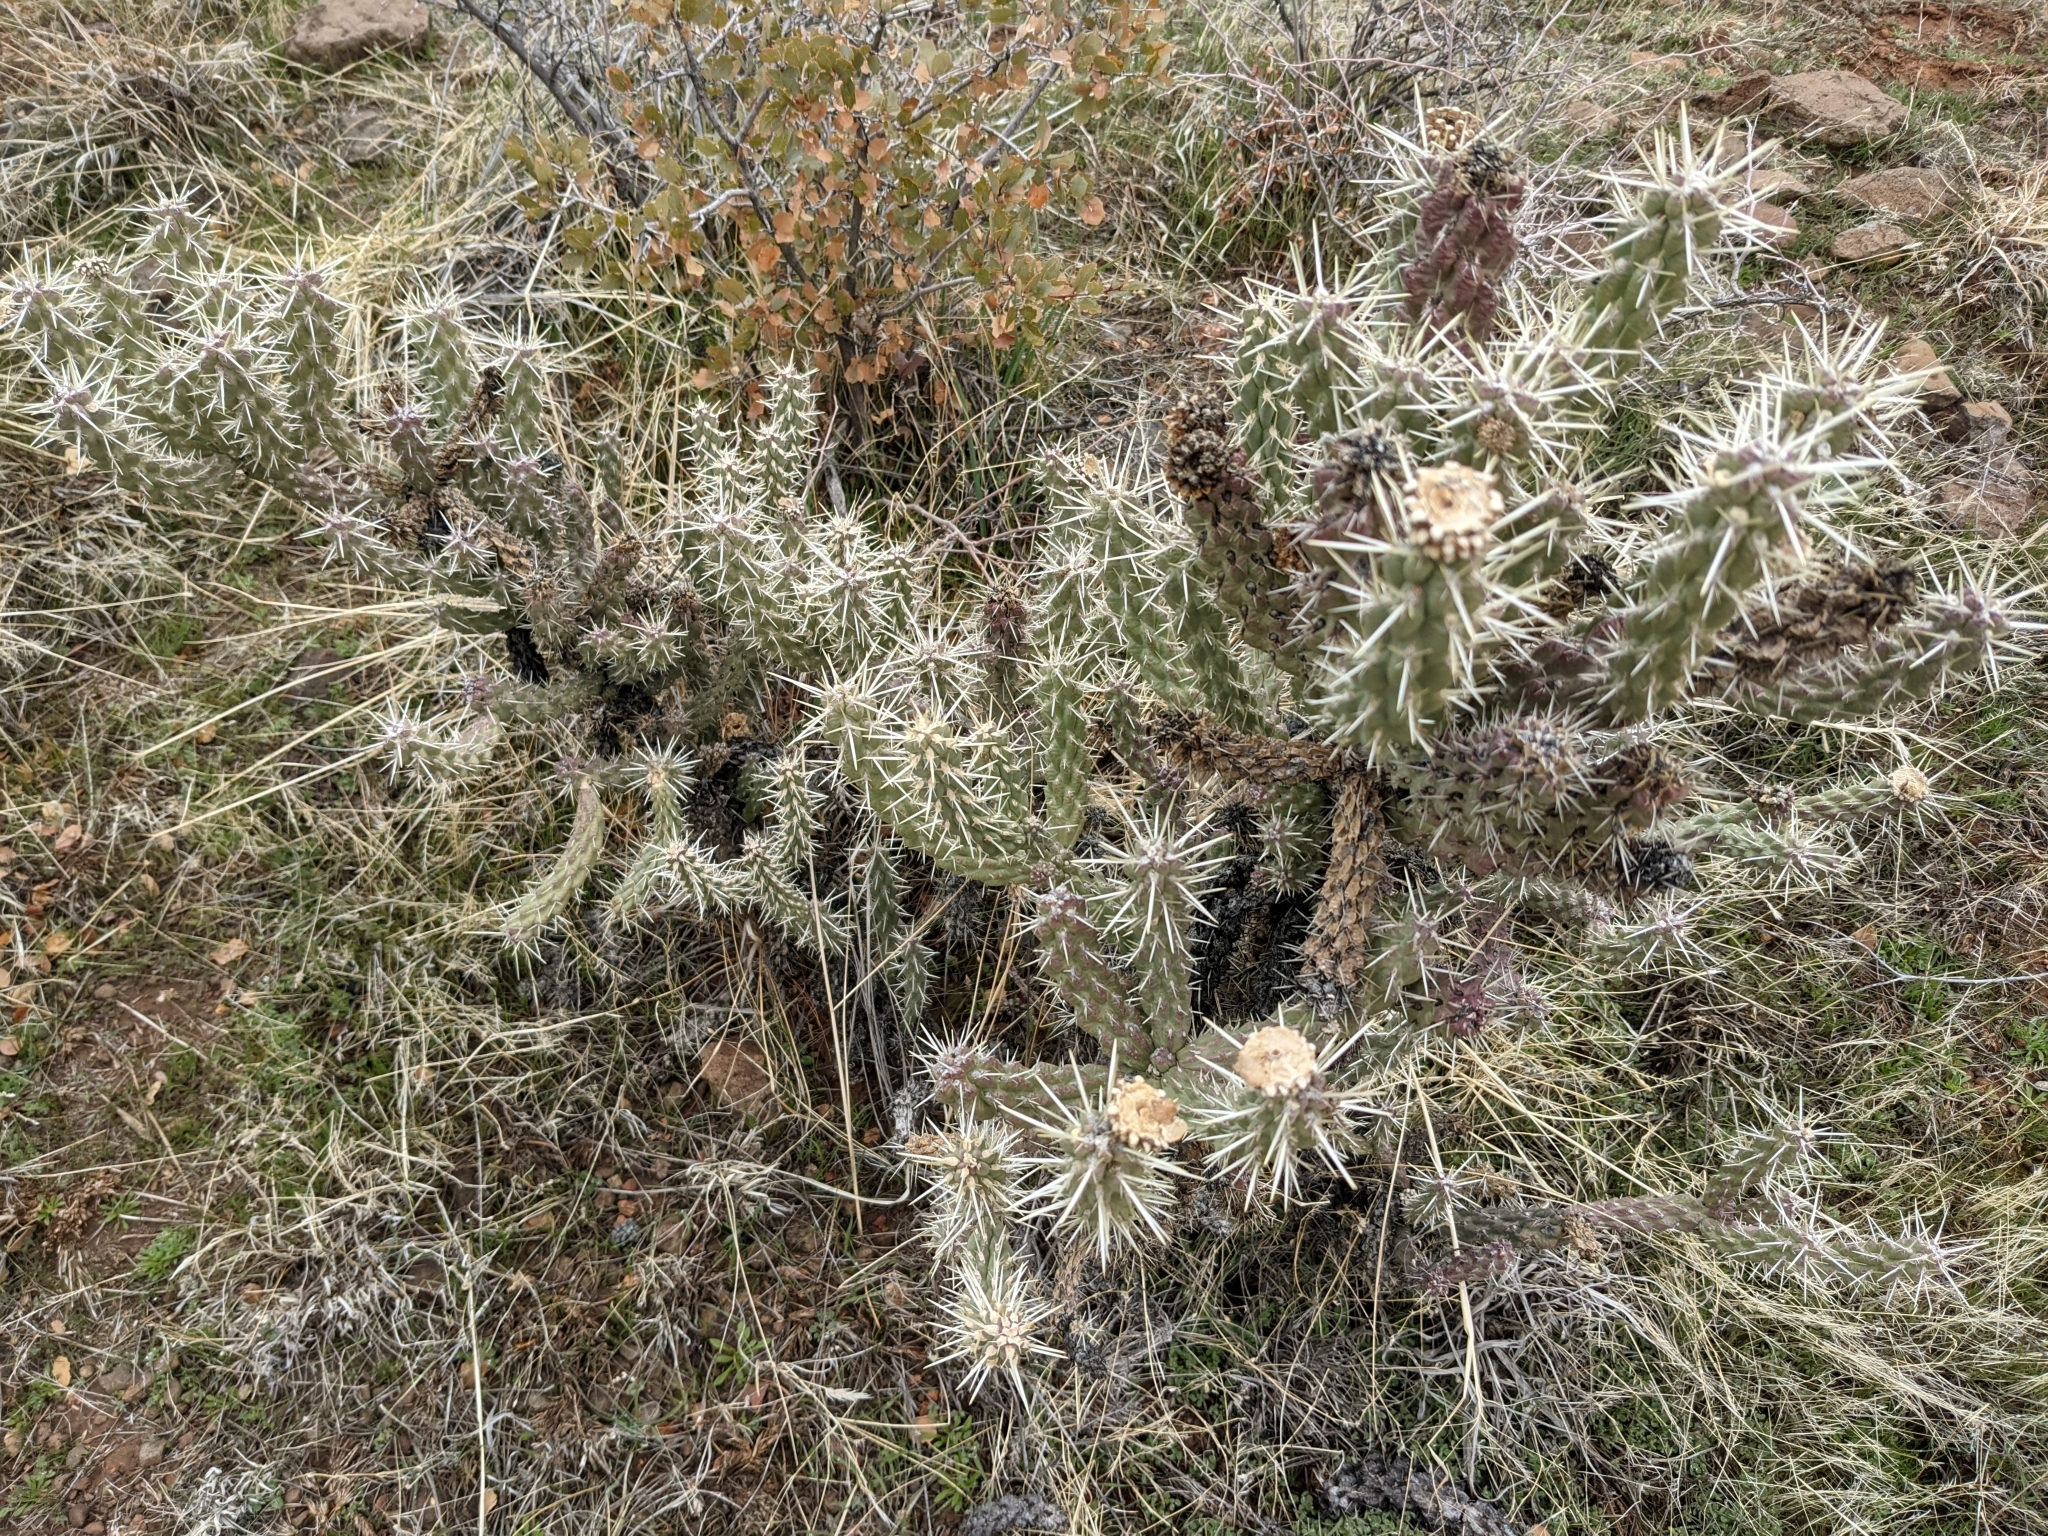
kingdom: Plantae
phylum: Tracheophyta
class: Magnoliopsida
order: Caryophyllales
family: Cactaceae
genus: Cylindropuntia
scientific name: Cylindropuntia whipplei
